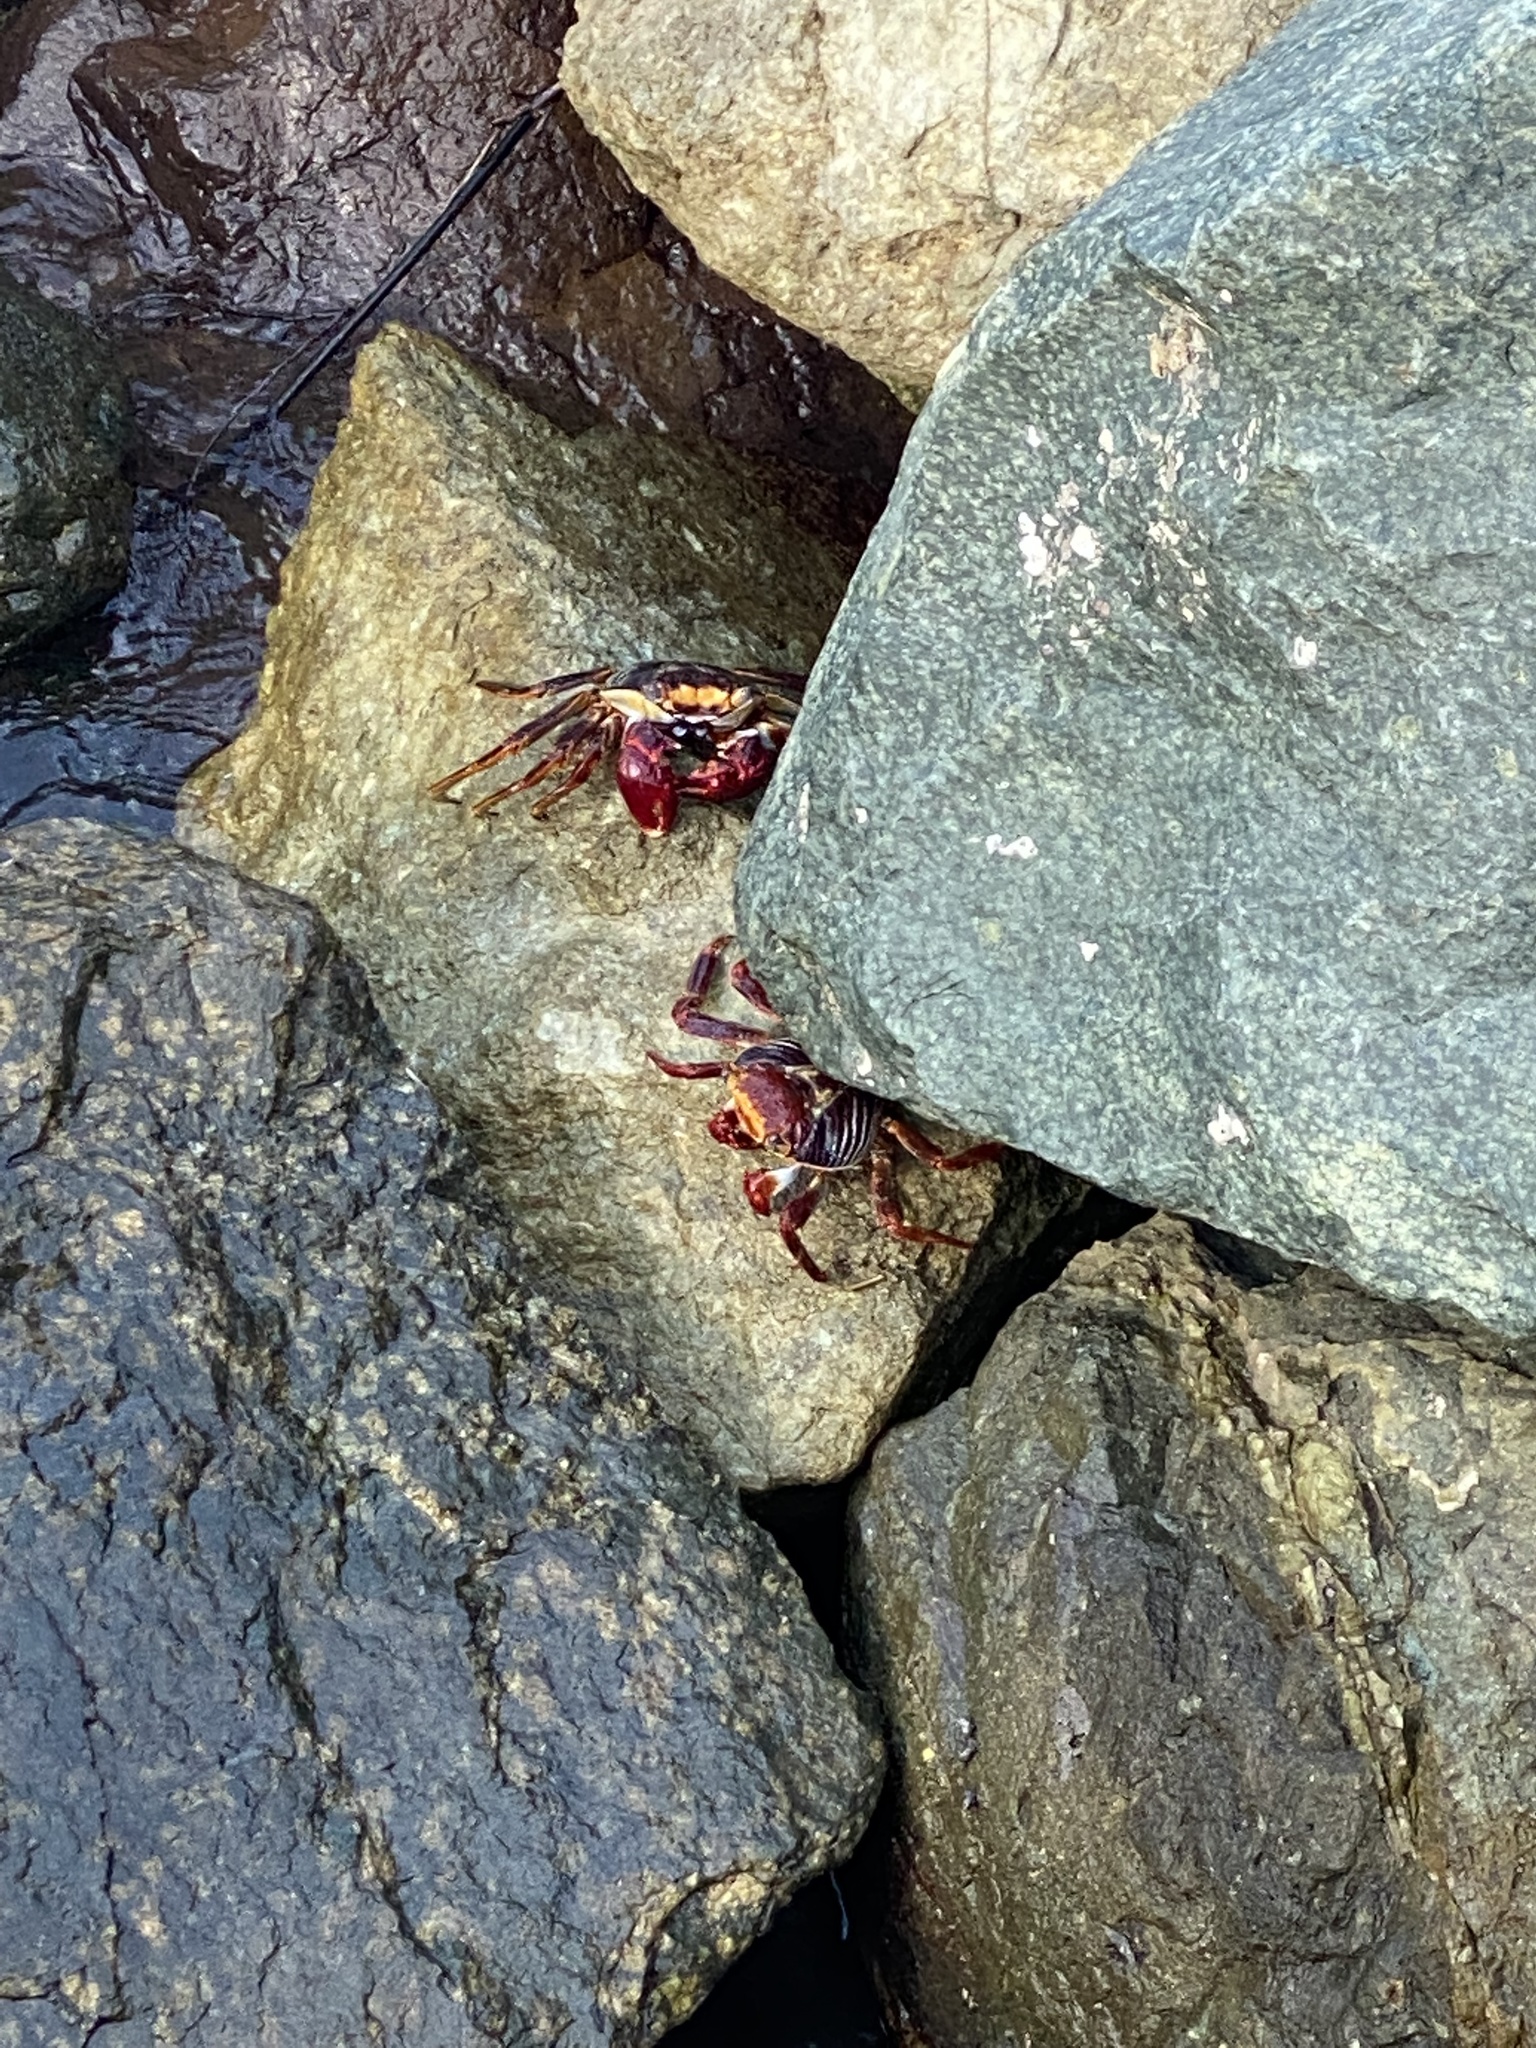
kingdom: Animalia
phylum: Arthropoda
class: Malacostraca
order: Decapoda
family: Grapsidae
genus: Grapsus
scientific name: Grapsus grapsus
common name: Sally lightfoot
